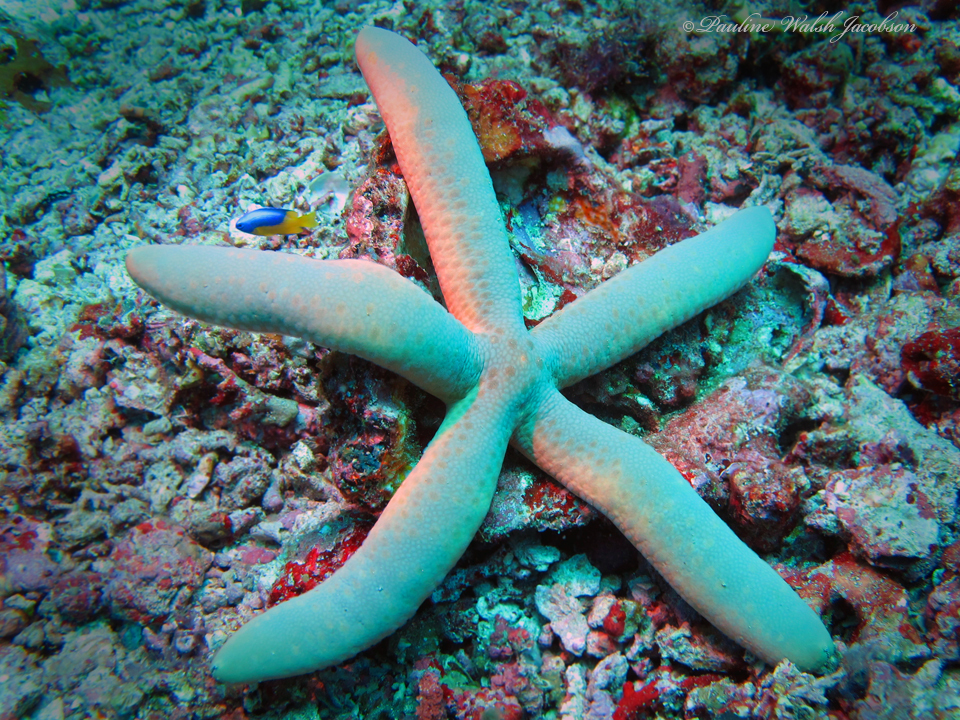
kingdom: Animalia
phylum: Echinodermata
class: Asteroidea
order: Valvatida
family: Ophidiasteridae
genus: Linckia
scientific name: Linckia laevigata
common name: Azure sea star
